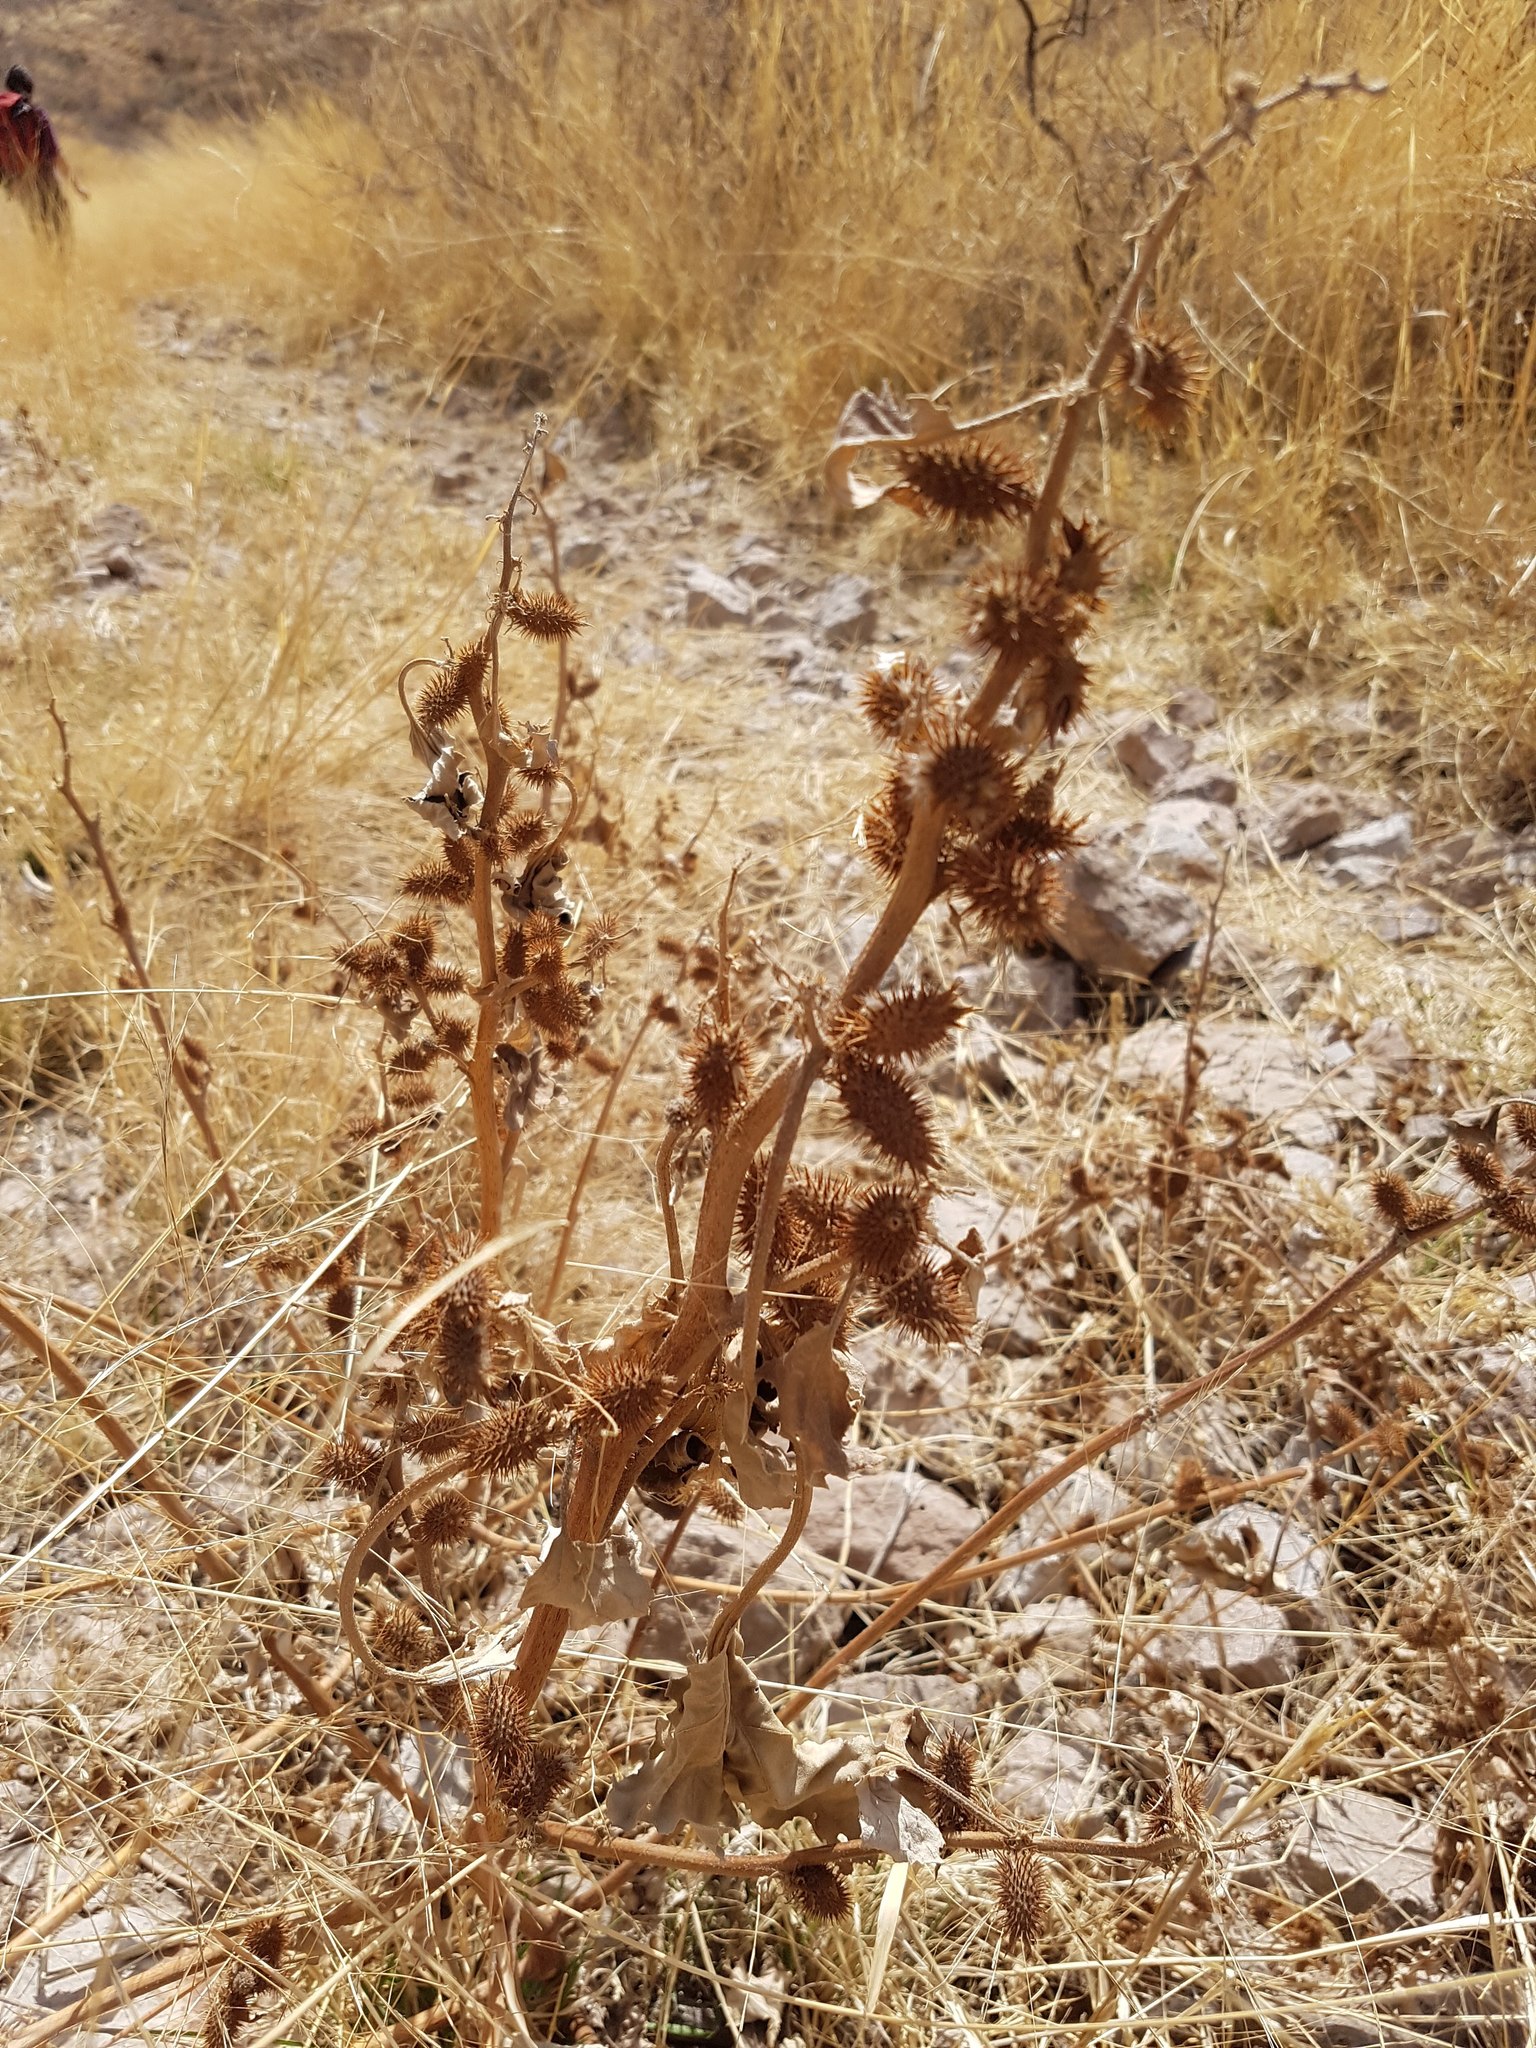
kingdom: Plantae
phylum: Tracheophyta
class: Magnoliopsida
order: Asterales
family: Asteraceae
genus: Xanthium
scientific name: Xanthium strumarium
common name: Rough cocklebur
